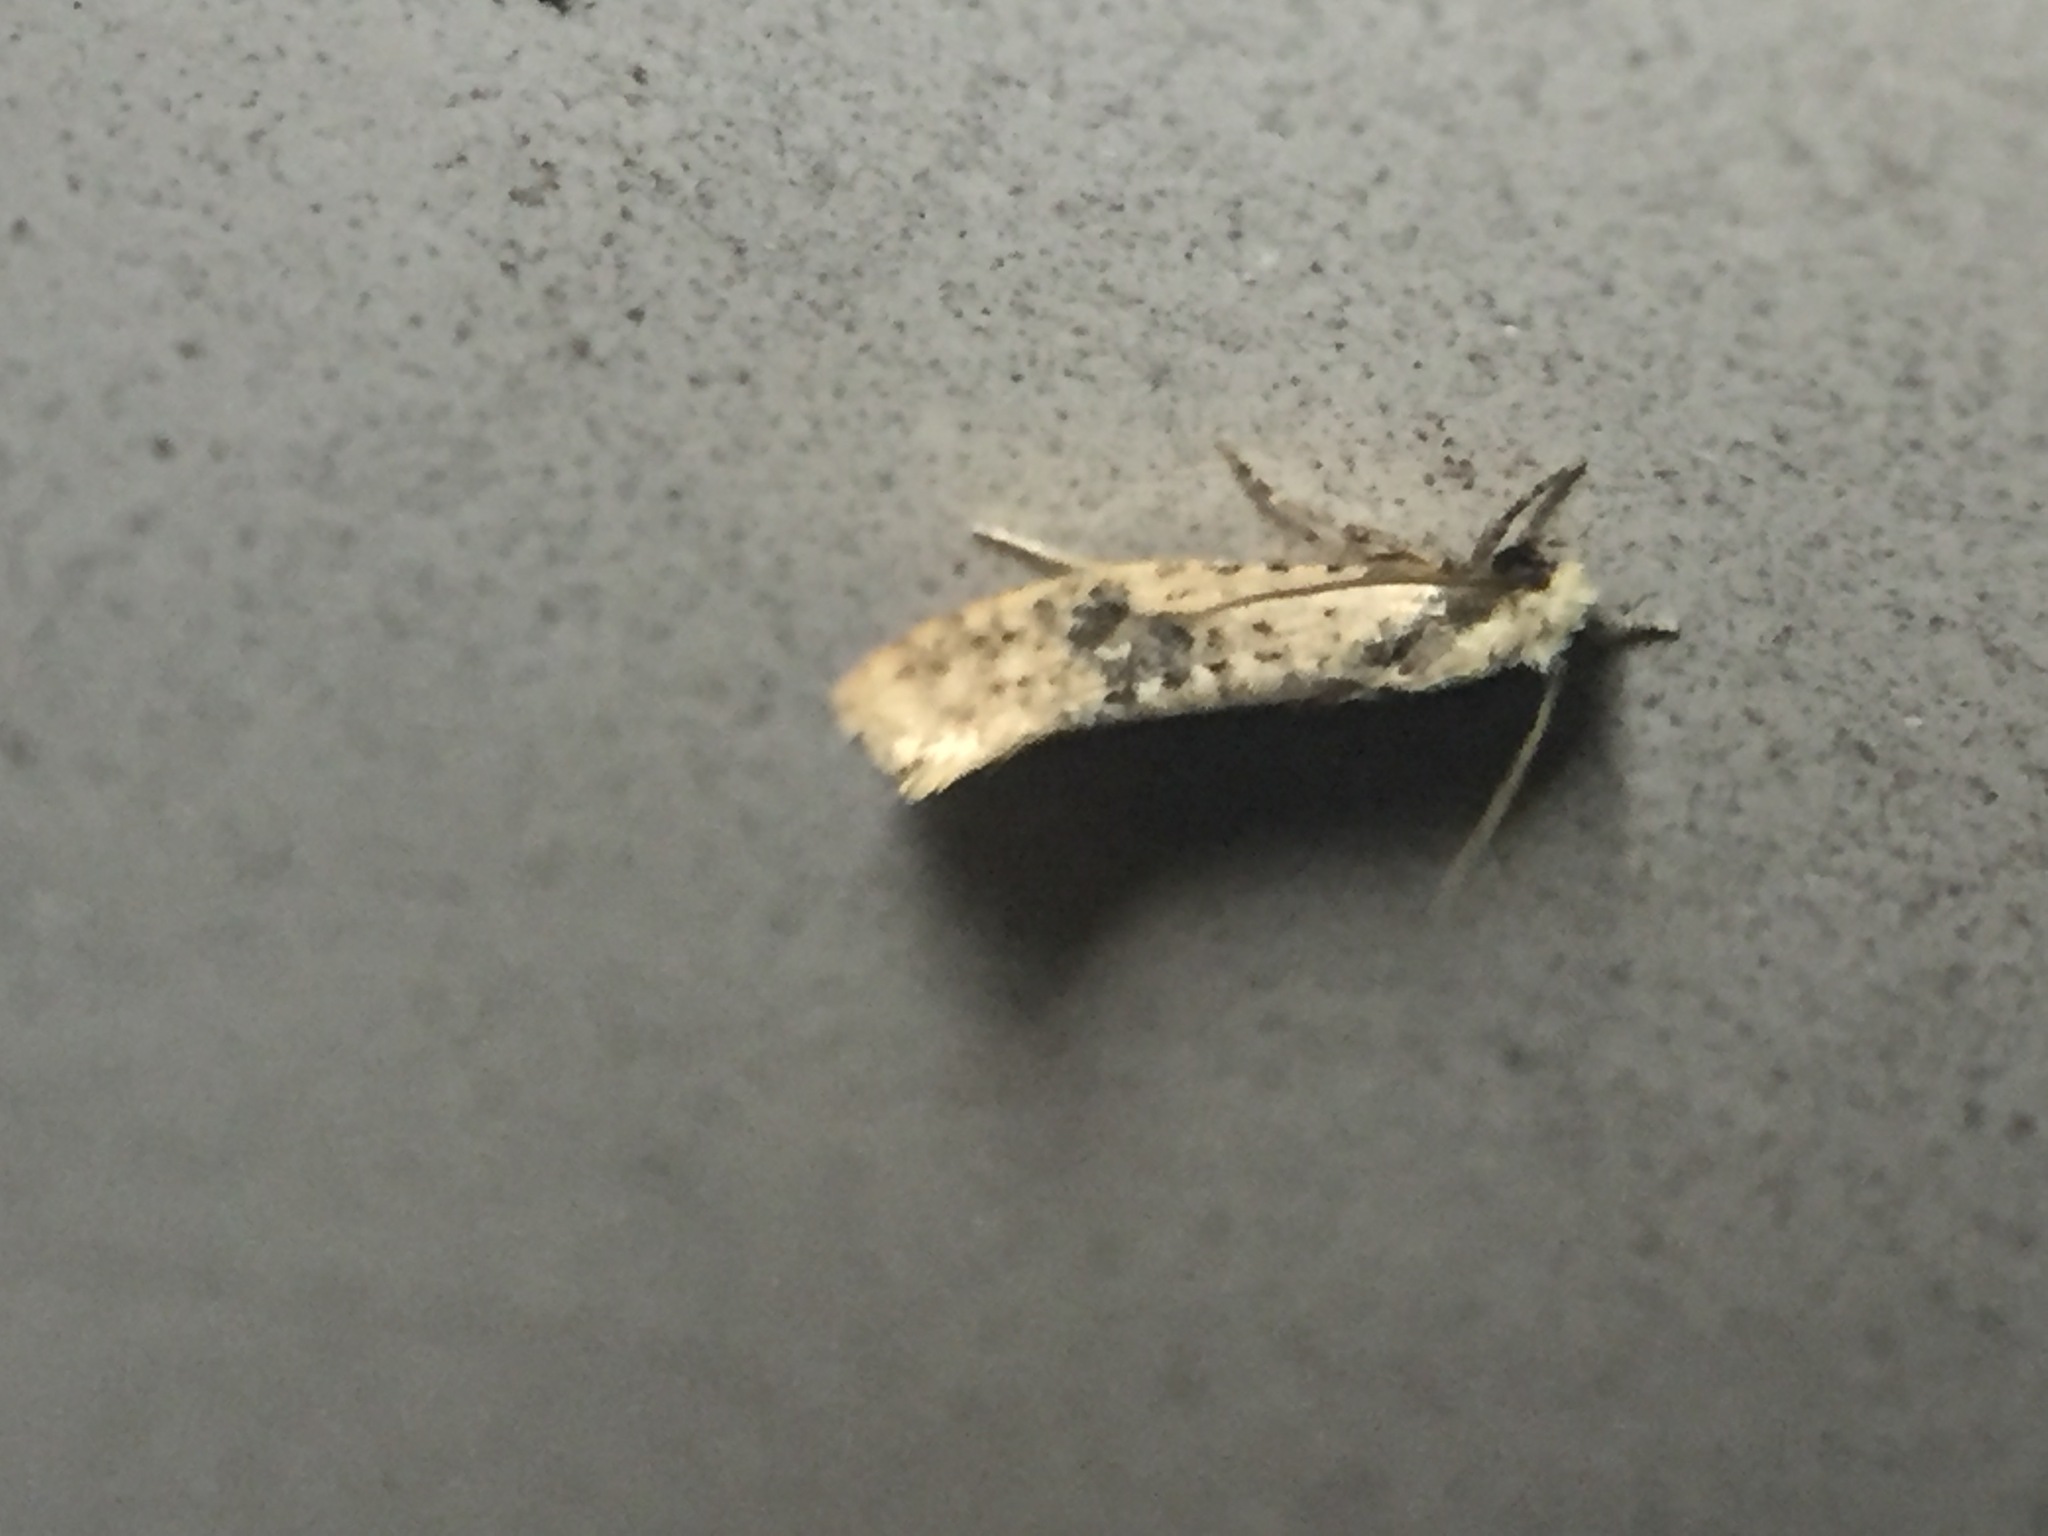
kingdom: Animalia
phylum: Arthropoda
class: Insecta
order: Lepidoptera
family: Tineidae
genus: Monopis
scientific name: Monopis argillacea
